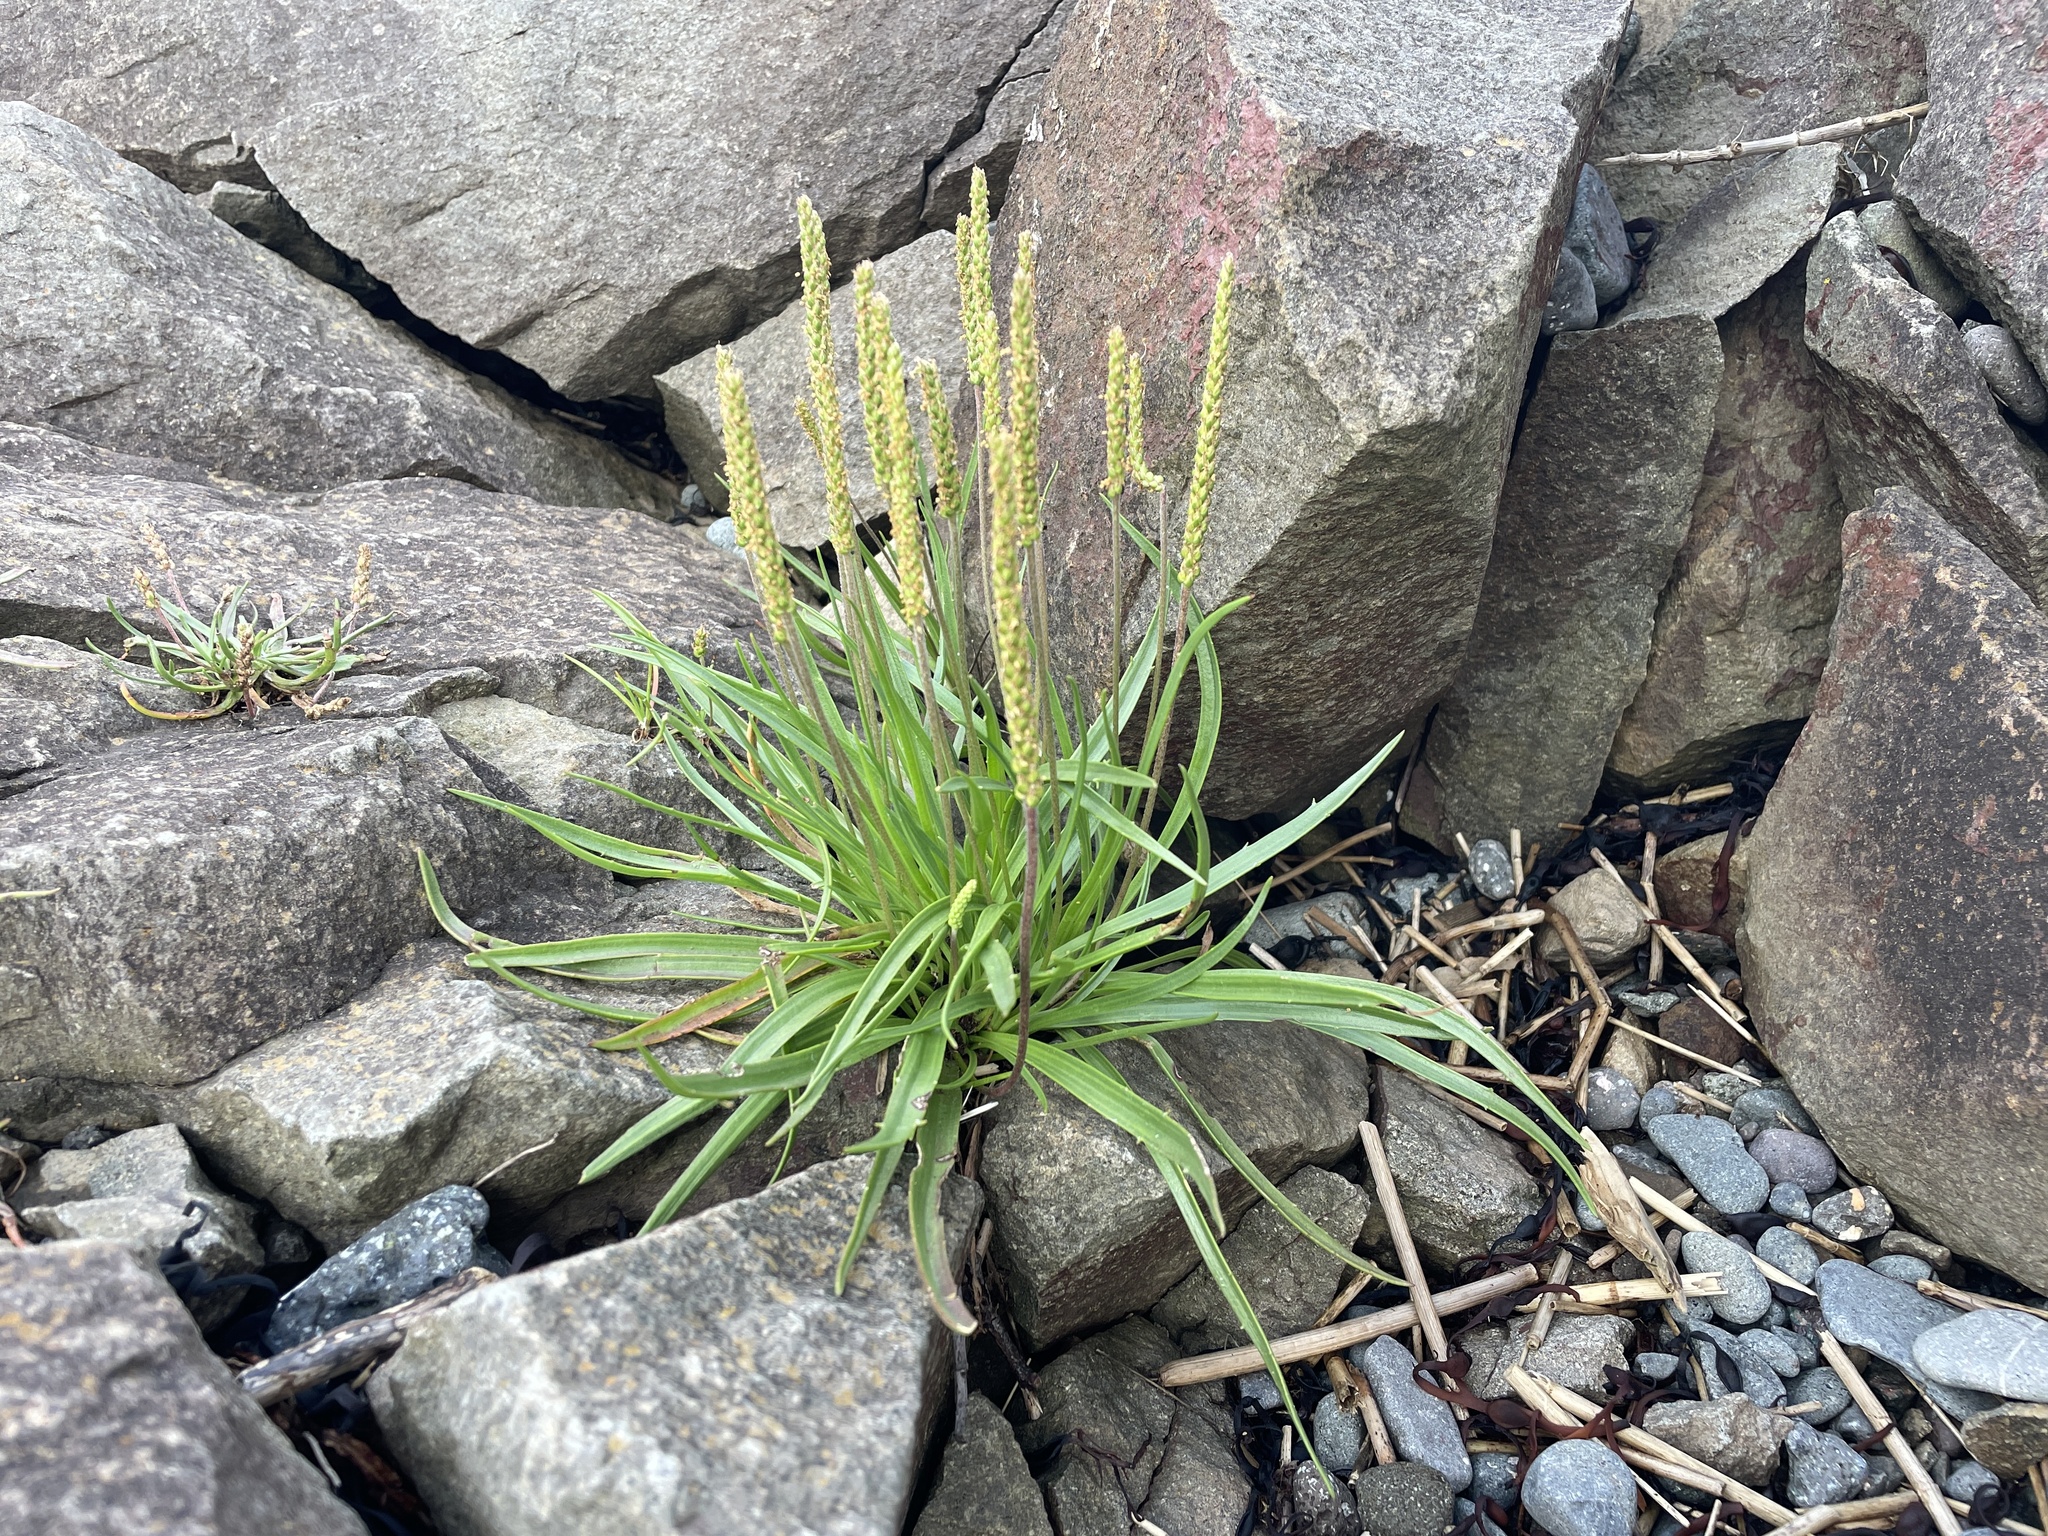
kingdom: Plantae
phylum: Tracheophyta
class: Magnoliopsida
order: Lamiales
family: Plantaginaceae
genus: Plantago
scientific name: Plantago maritima
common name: Sea plantain
